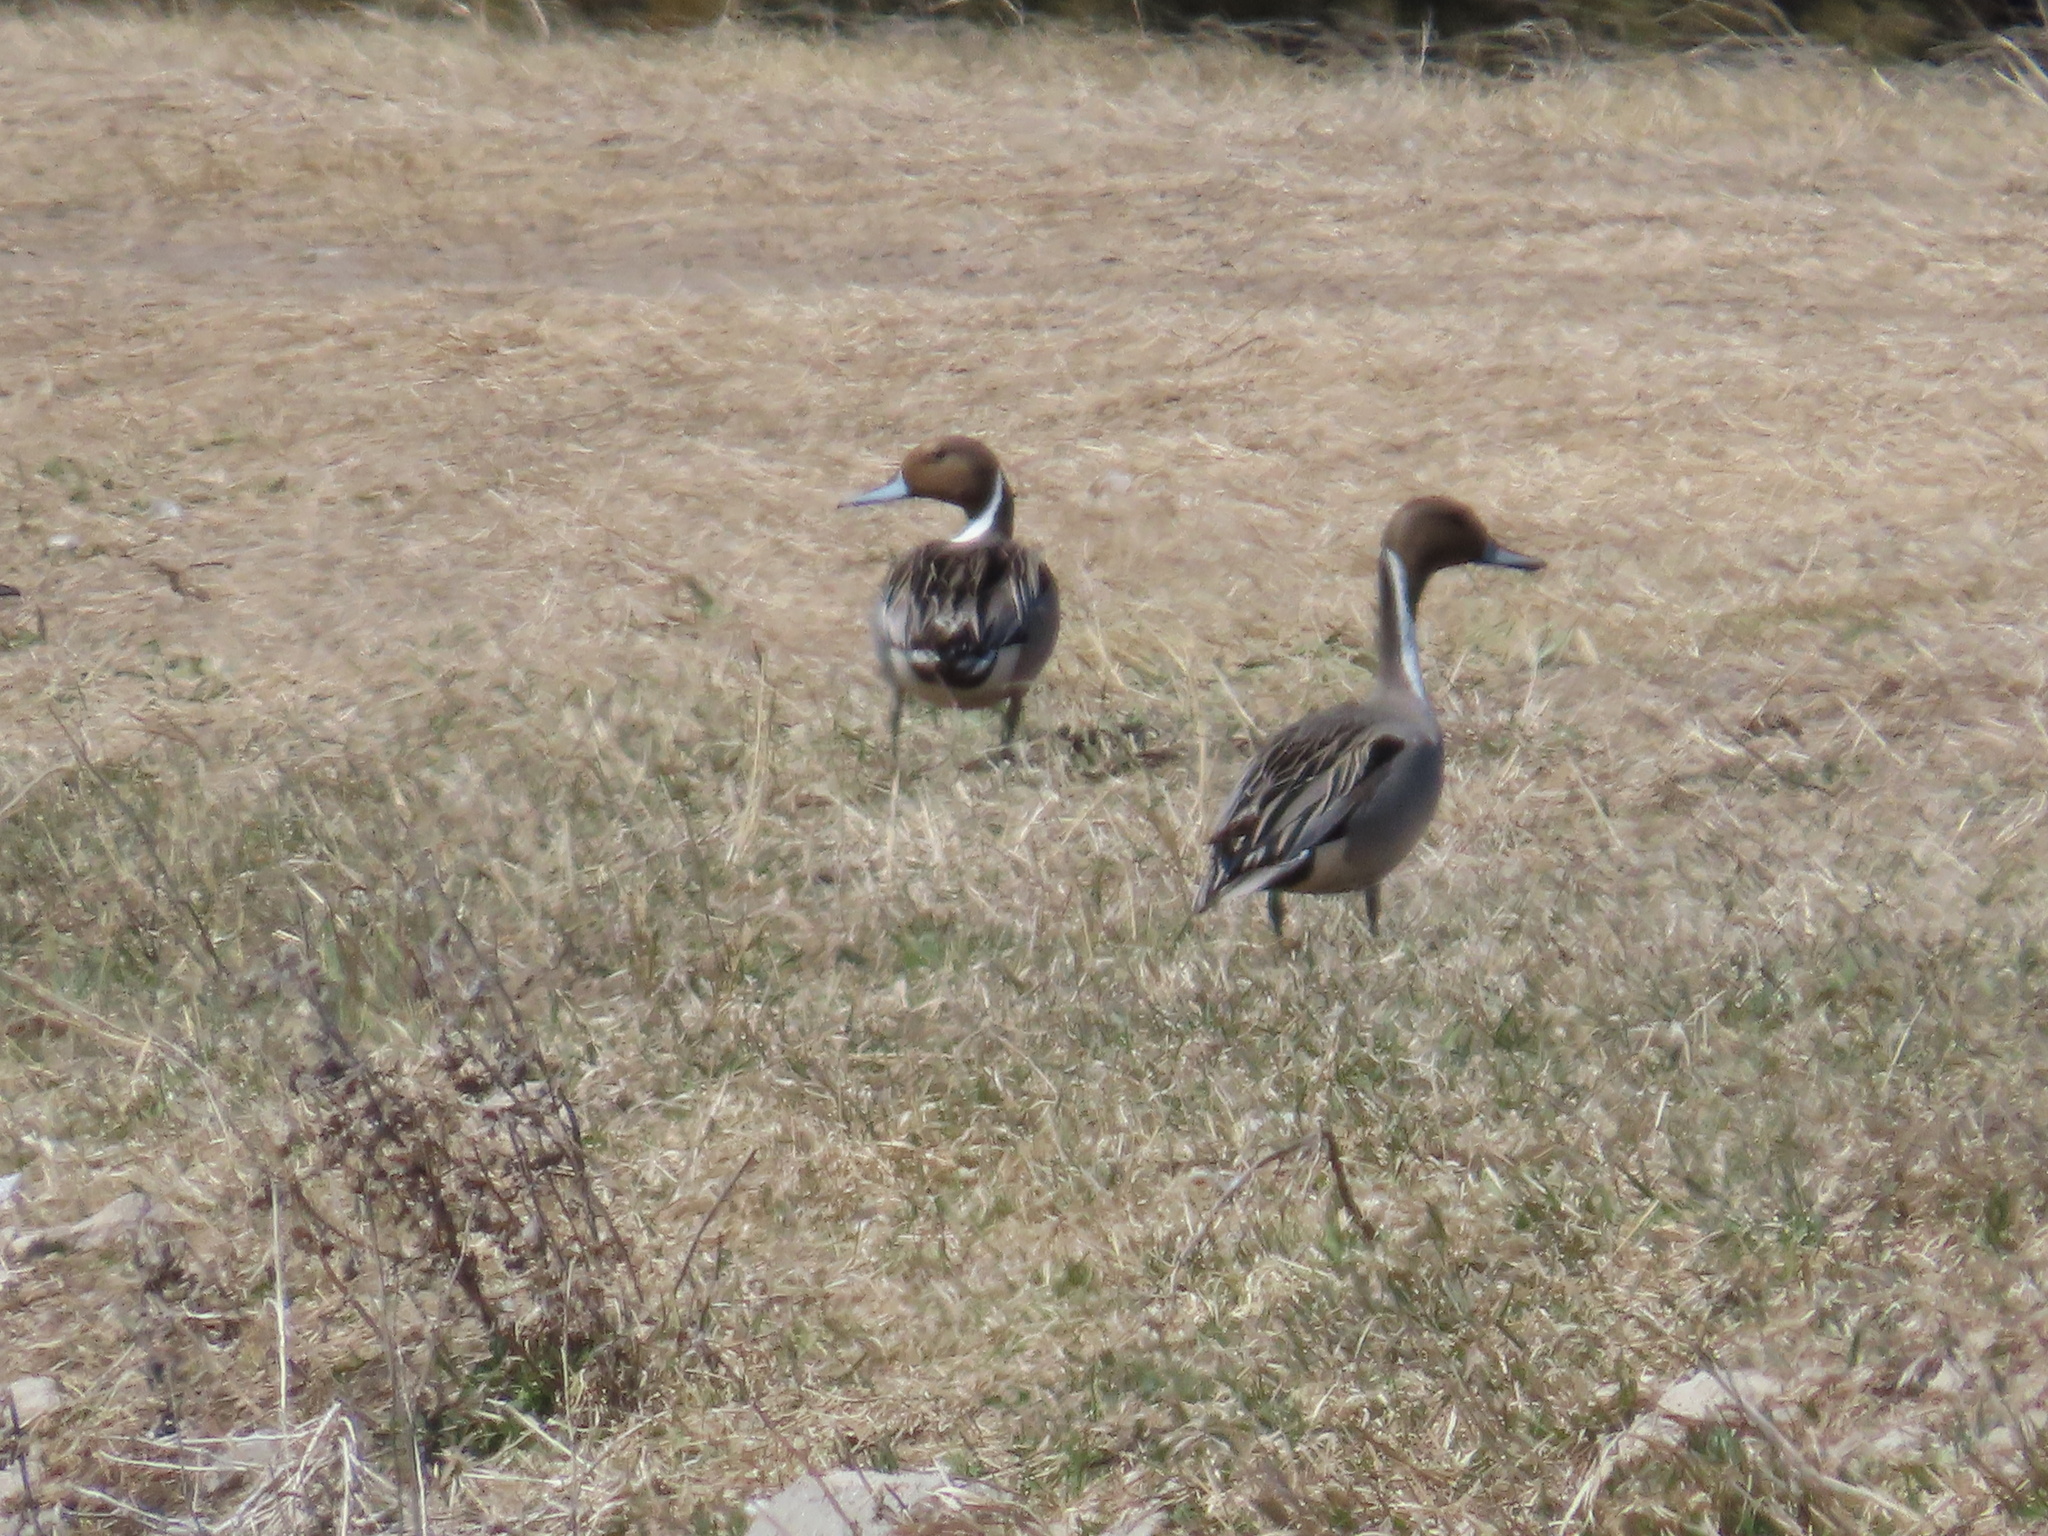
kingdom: Animalia
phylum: Chordata
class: Aves
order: Anseriformes
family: Anatidae
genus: Anas
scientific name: Anas acuta
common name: Northern pintail
